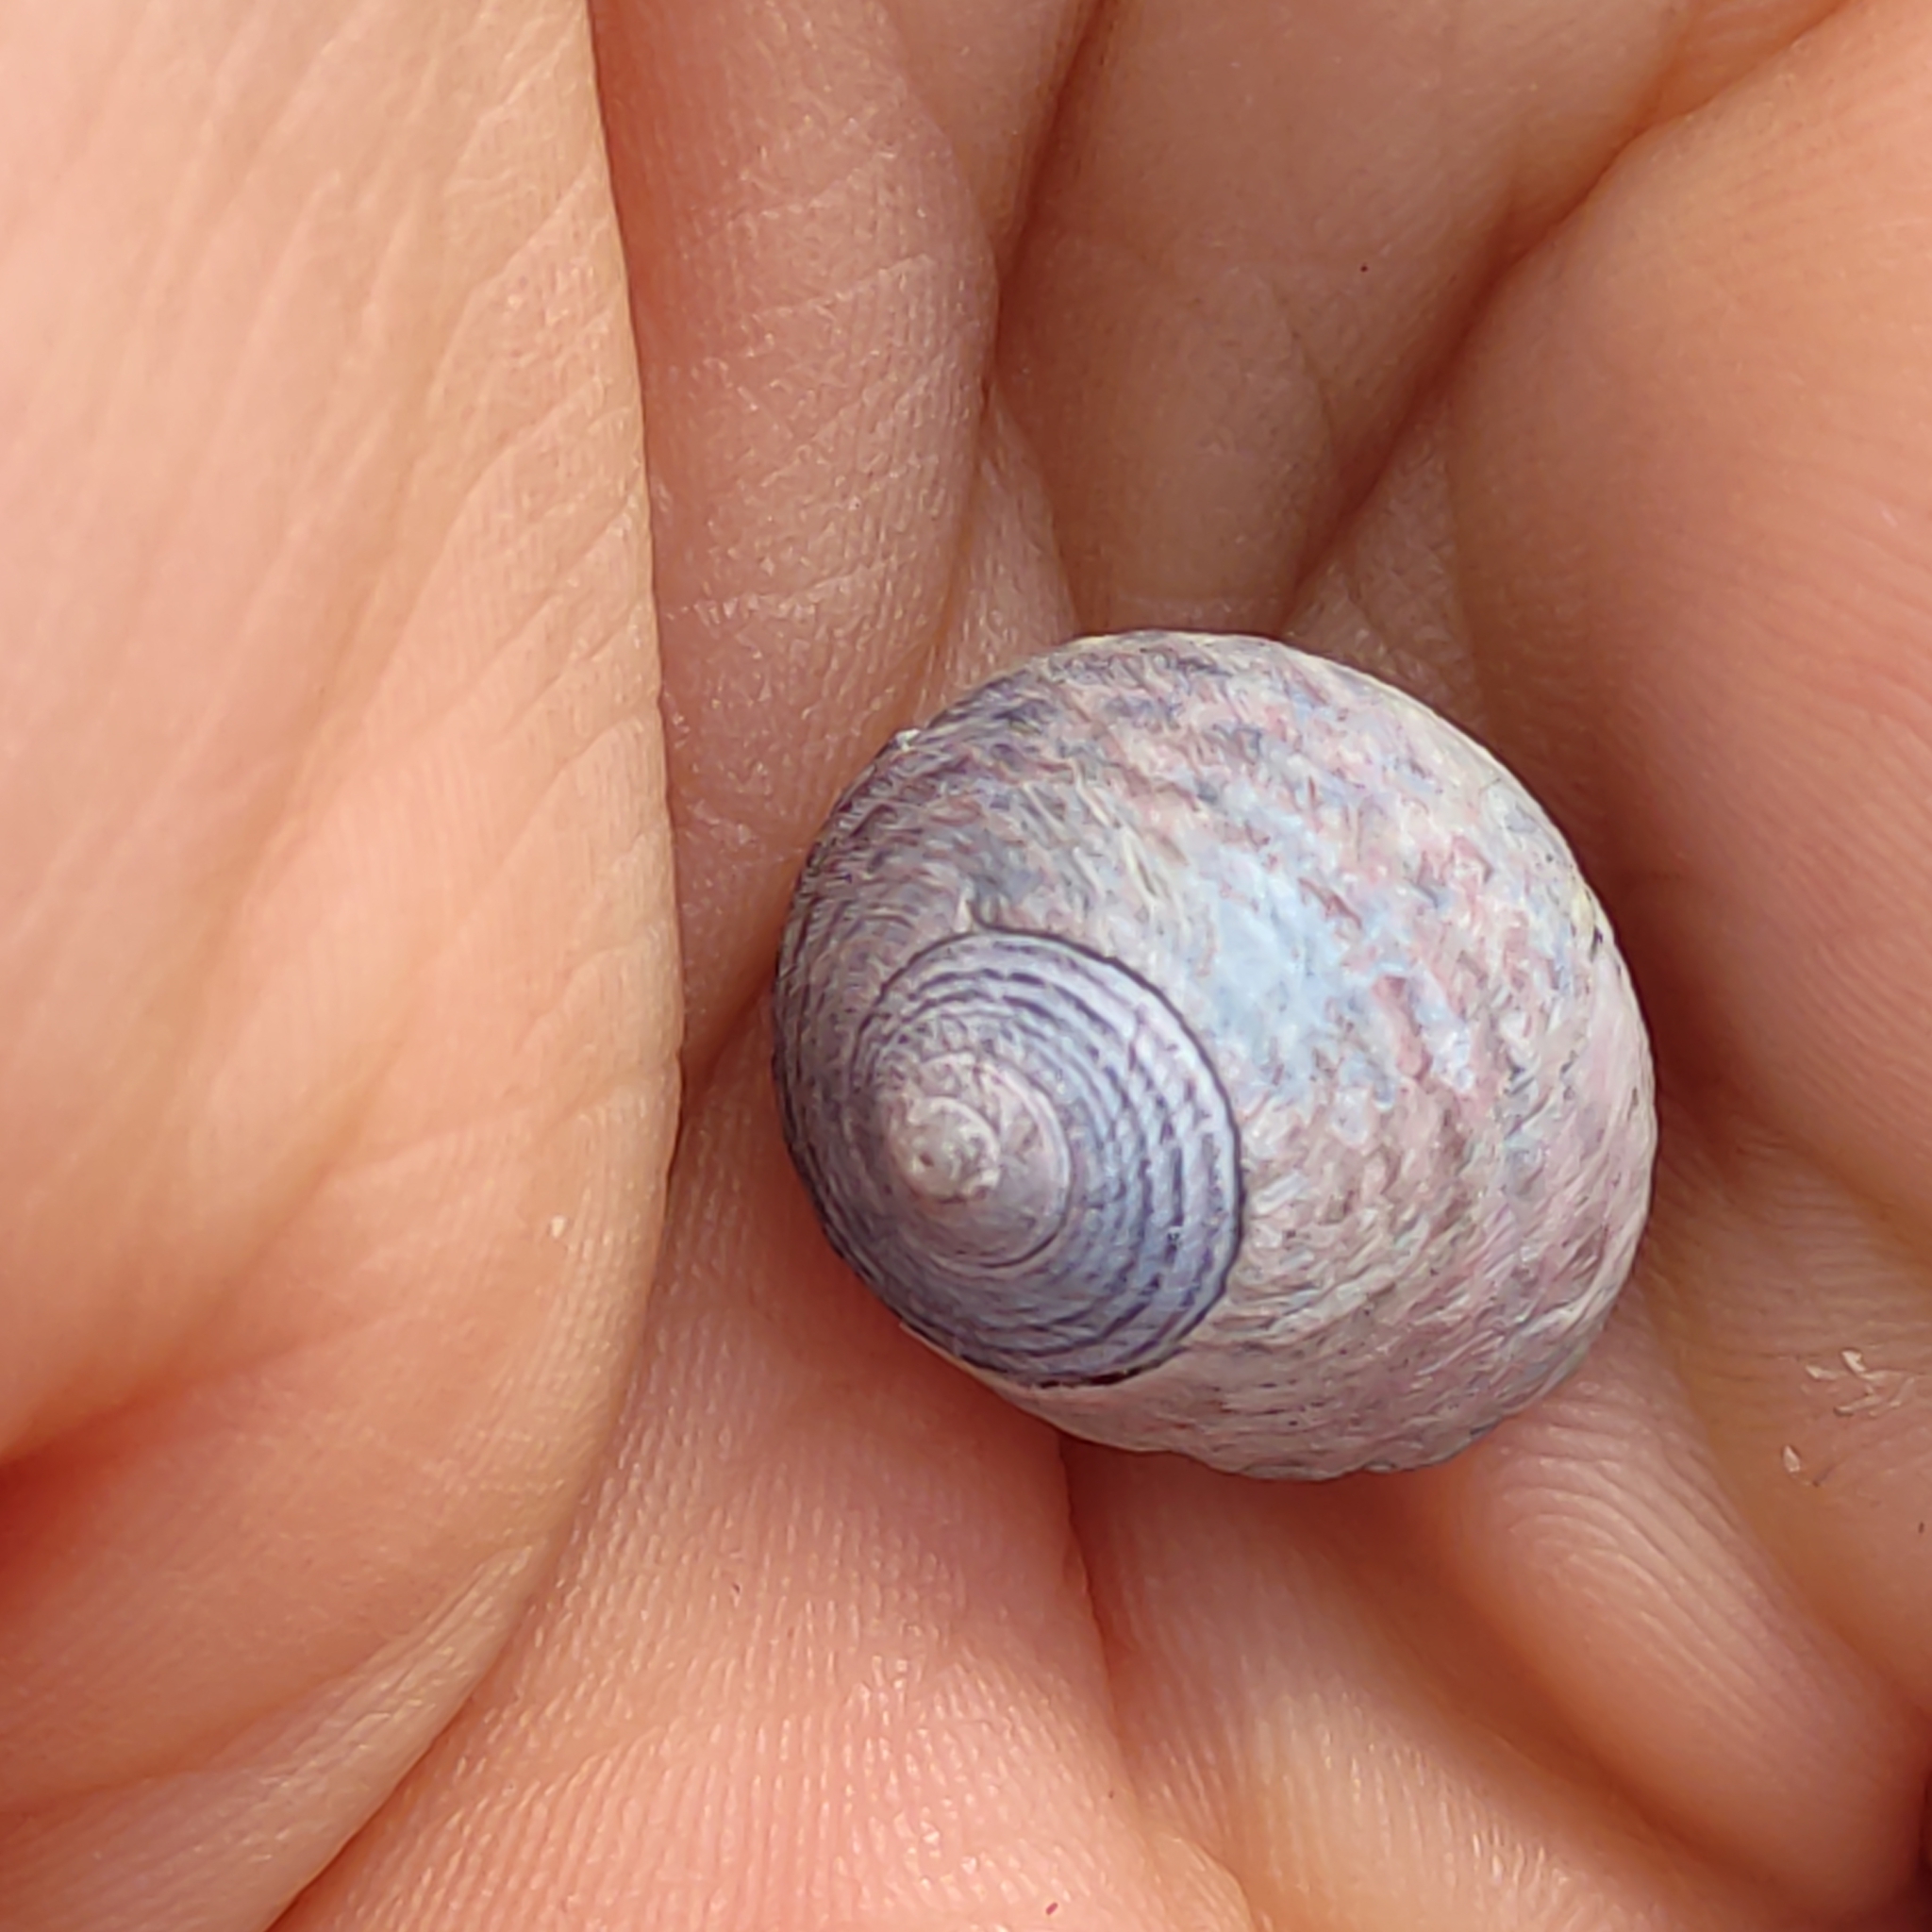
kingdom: Animalia
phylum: Mollusca
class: Gastropoda
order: Trochida
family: Trochidae
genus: Diloma
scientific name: Diloma subrostratum
